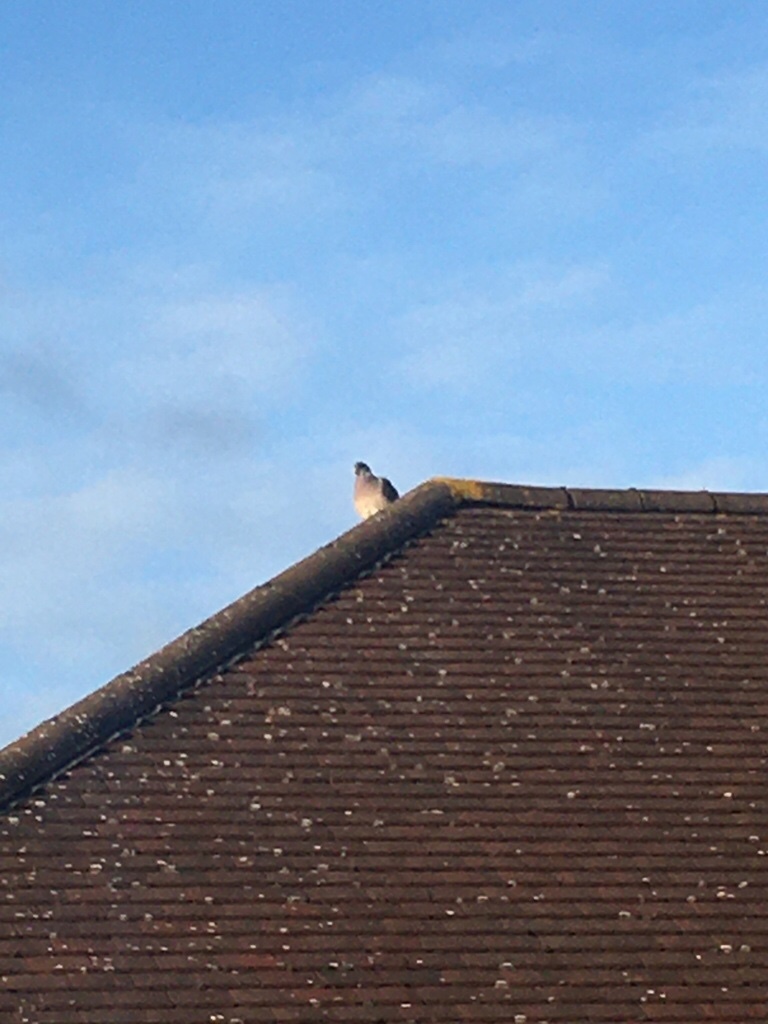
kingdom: Animalia
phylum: Chordata
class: Aves
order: Columbiformes
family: Columbidae
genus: Columba
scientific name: Columba palumbus
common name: Common wood pigeon
